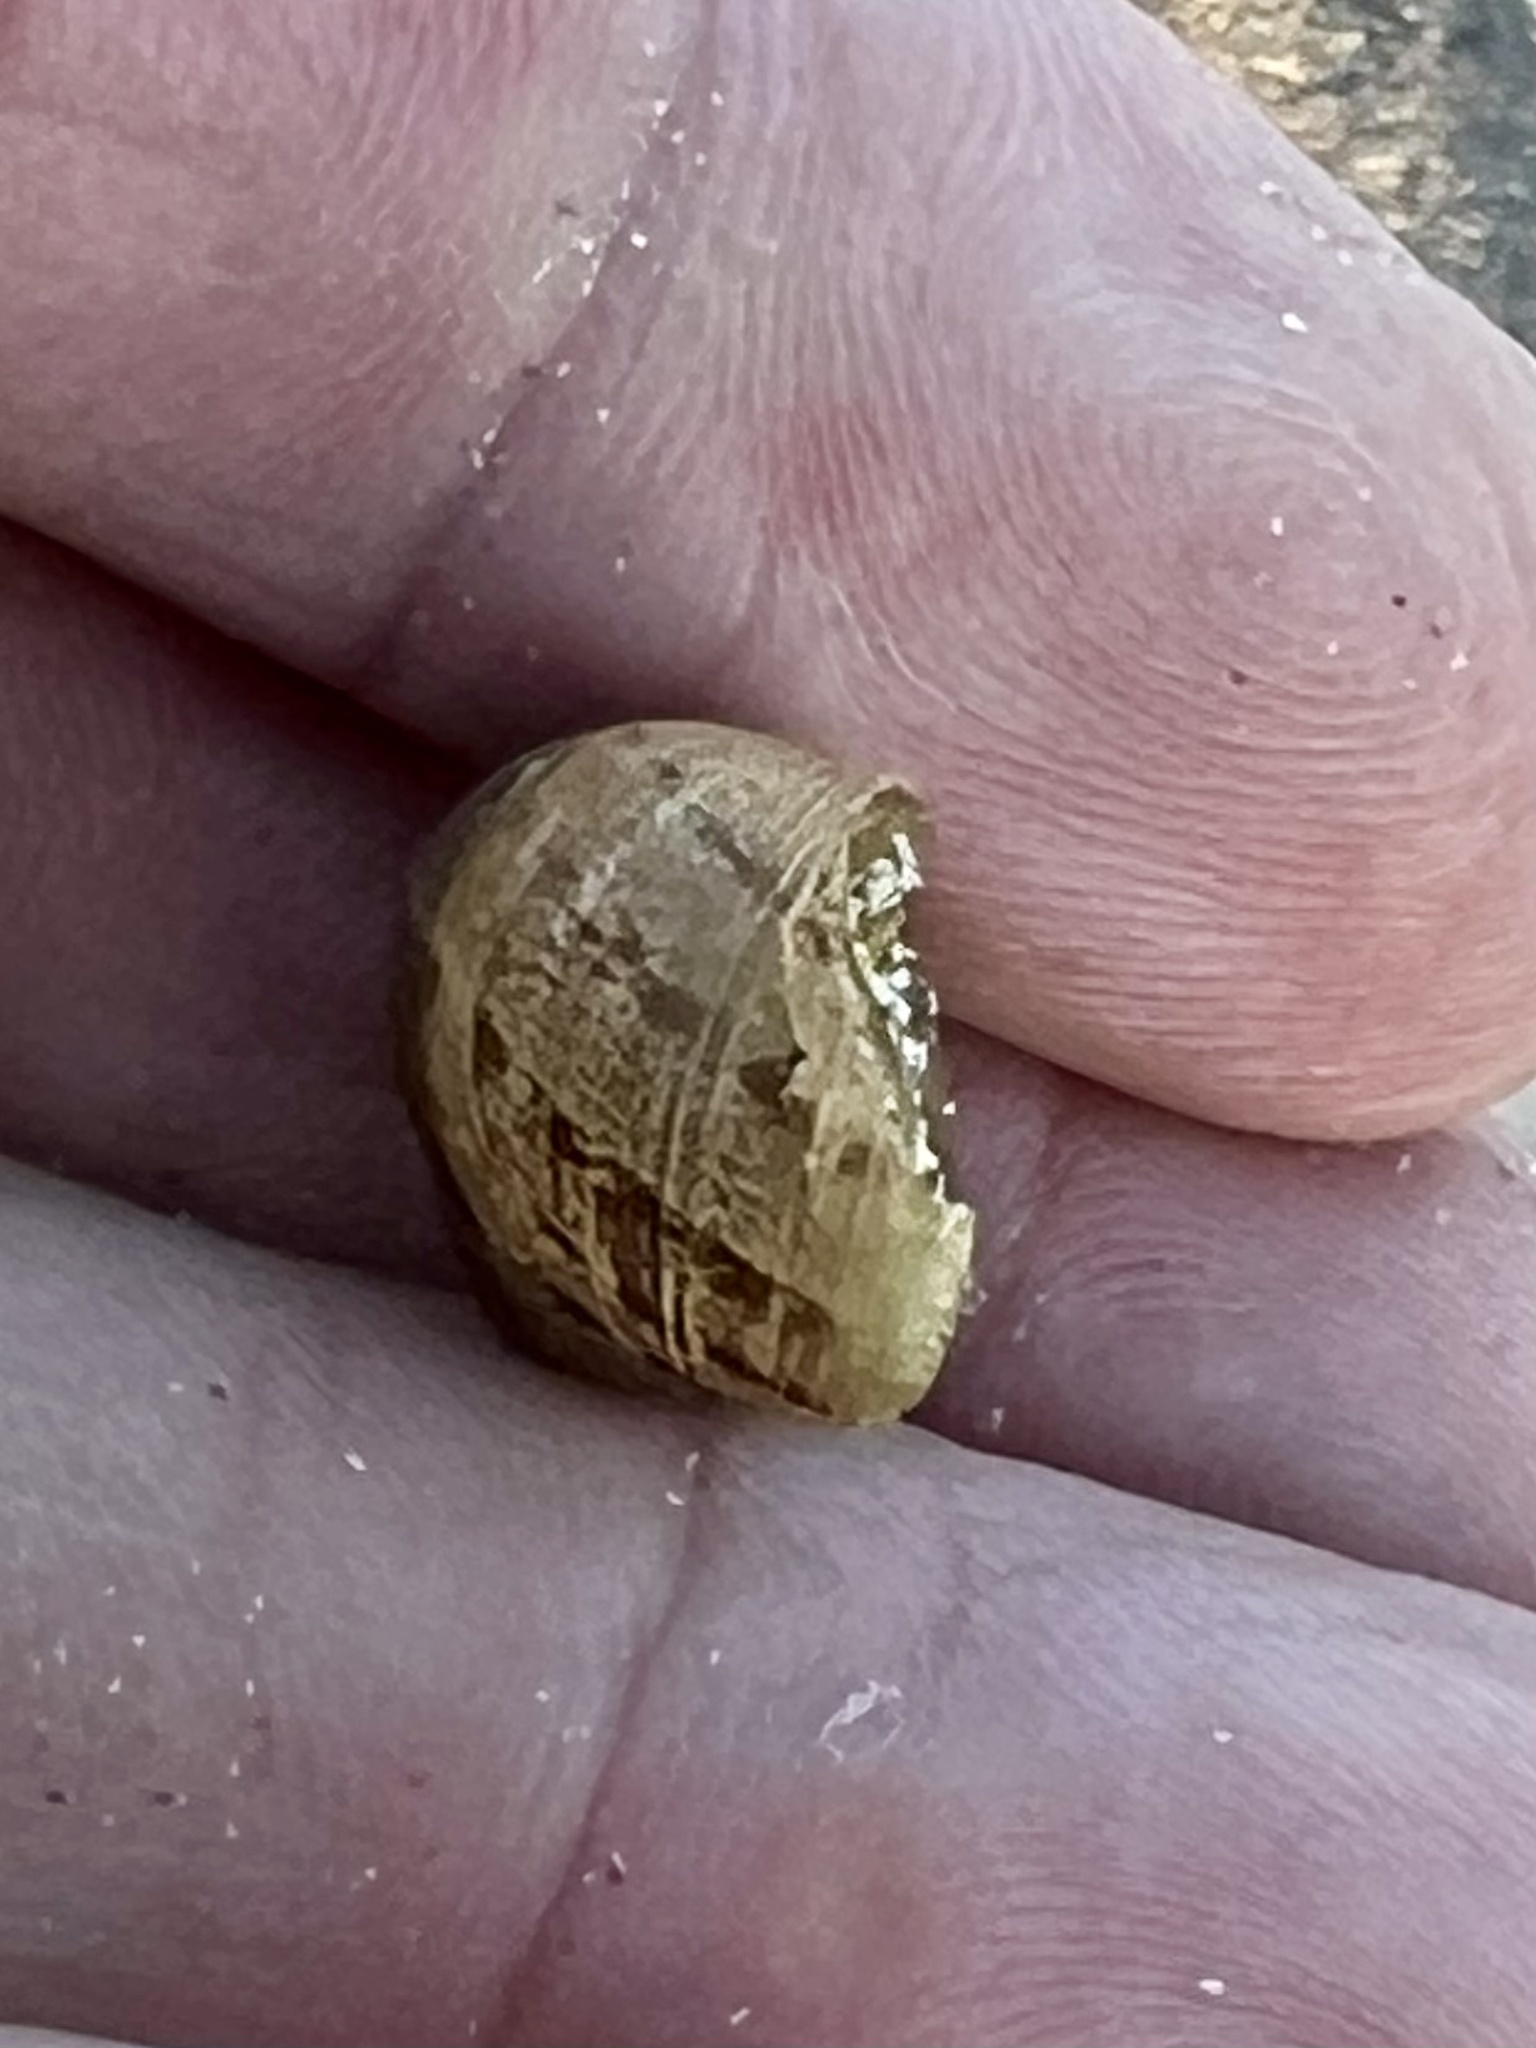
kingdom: Animalia
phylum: Mollusca
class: Gastropoda
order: Stylommatophora
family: Helicidae
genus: Cornu
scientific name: Cornu aspersum
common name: Brown garden snail
